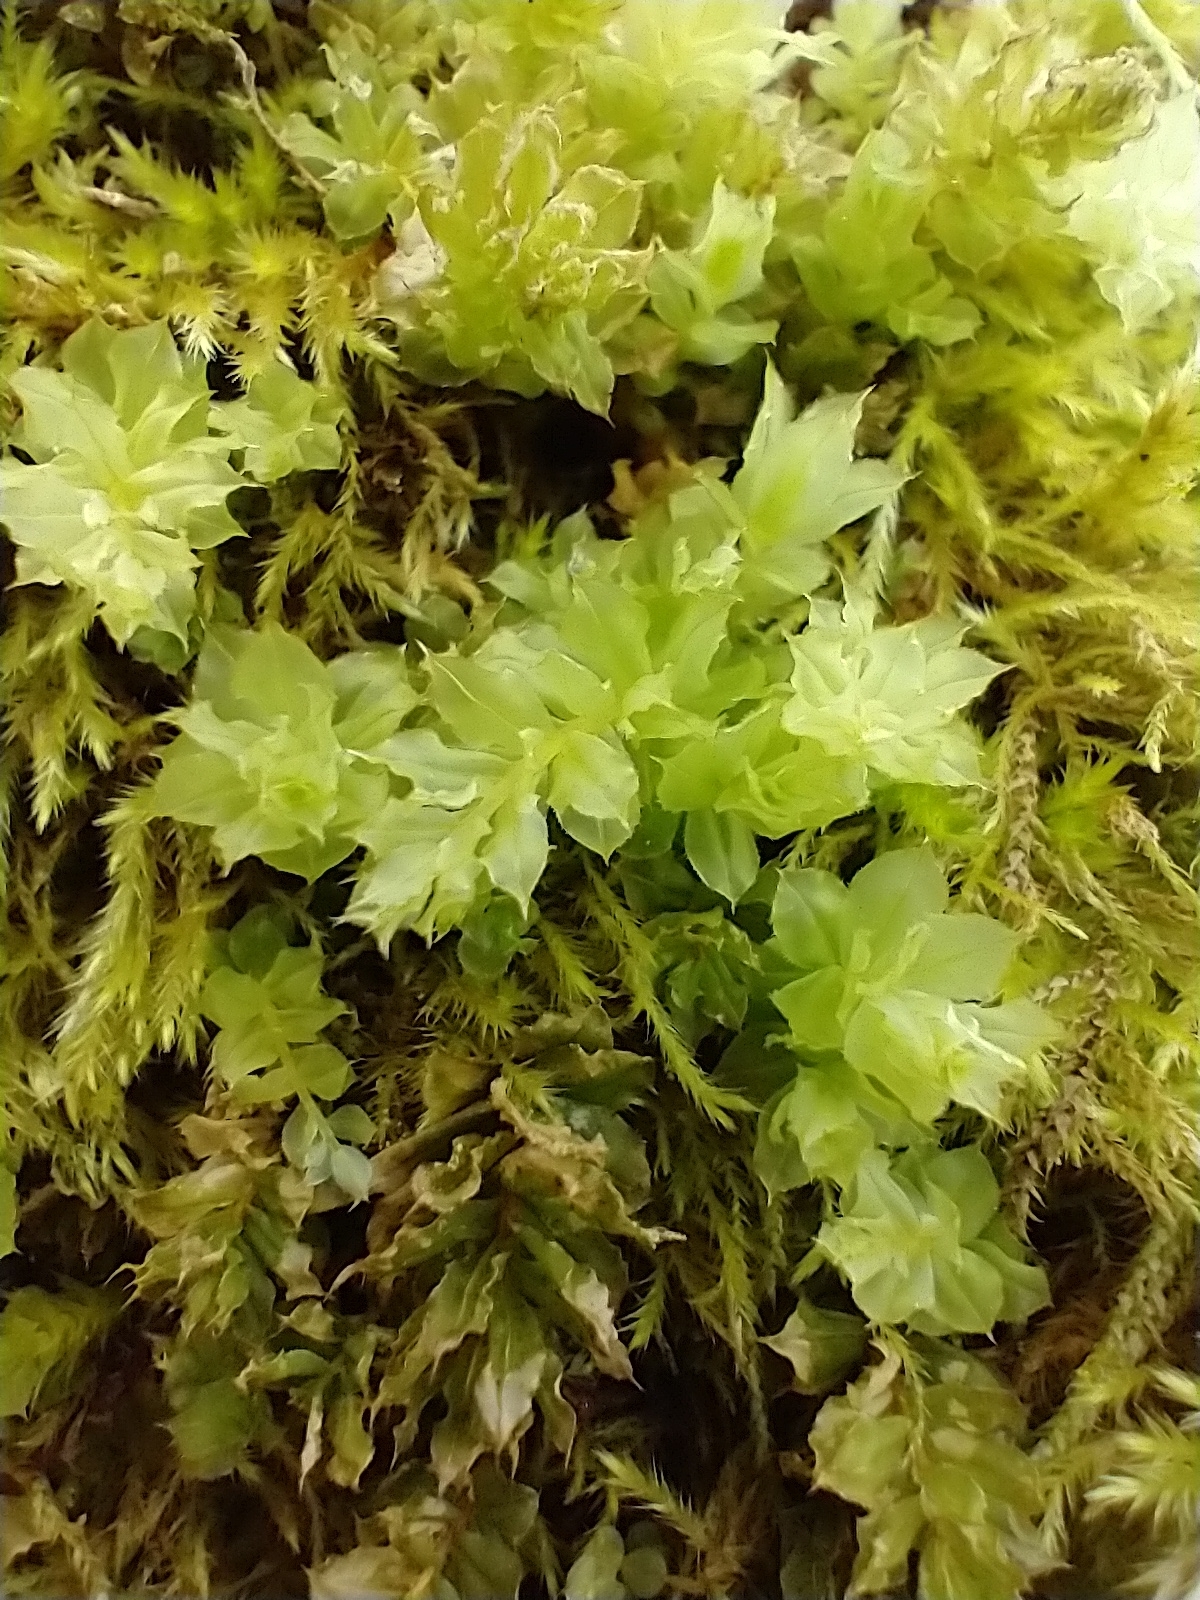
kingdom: Plantae
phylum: Bryophyta
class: Bryopsida
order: Bryales
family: Mniaceae
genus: Plagiomnium
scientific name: Plagiomnium venustum
